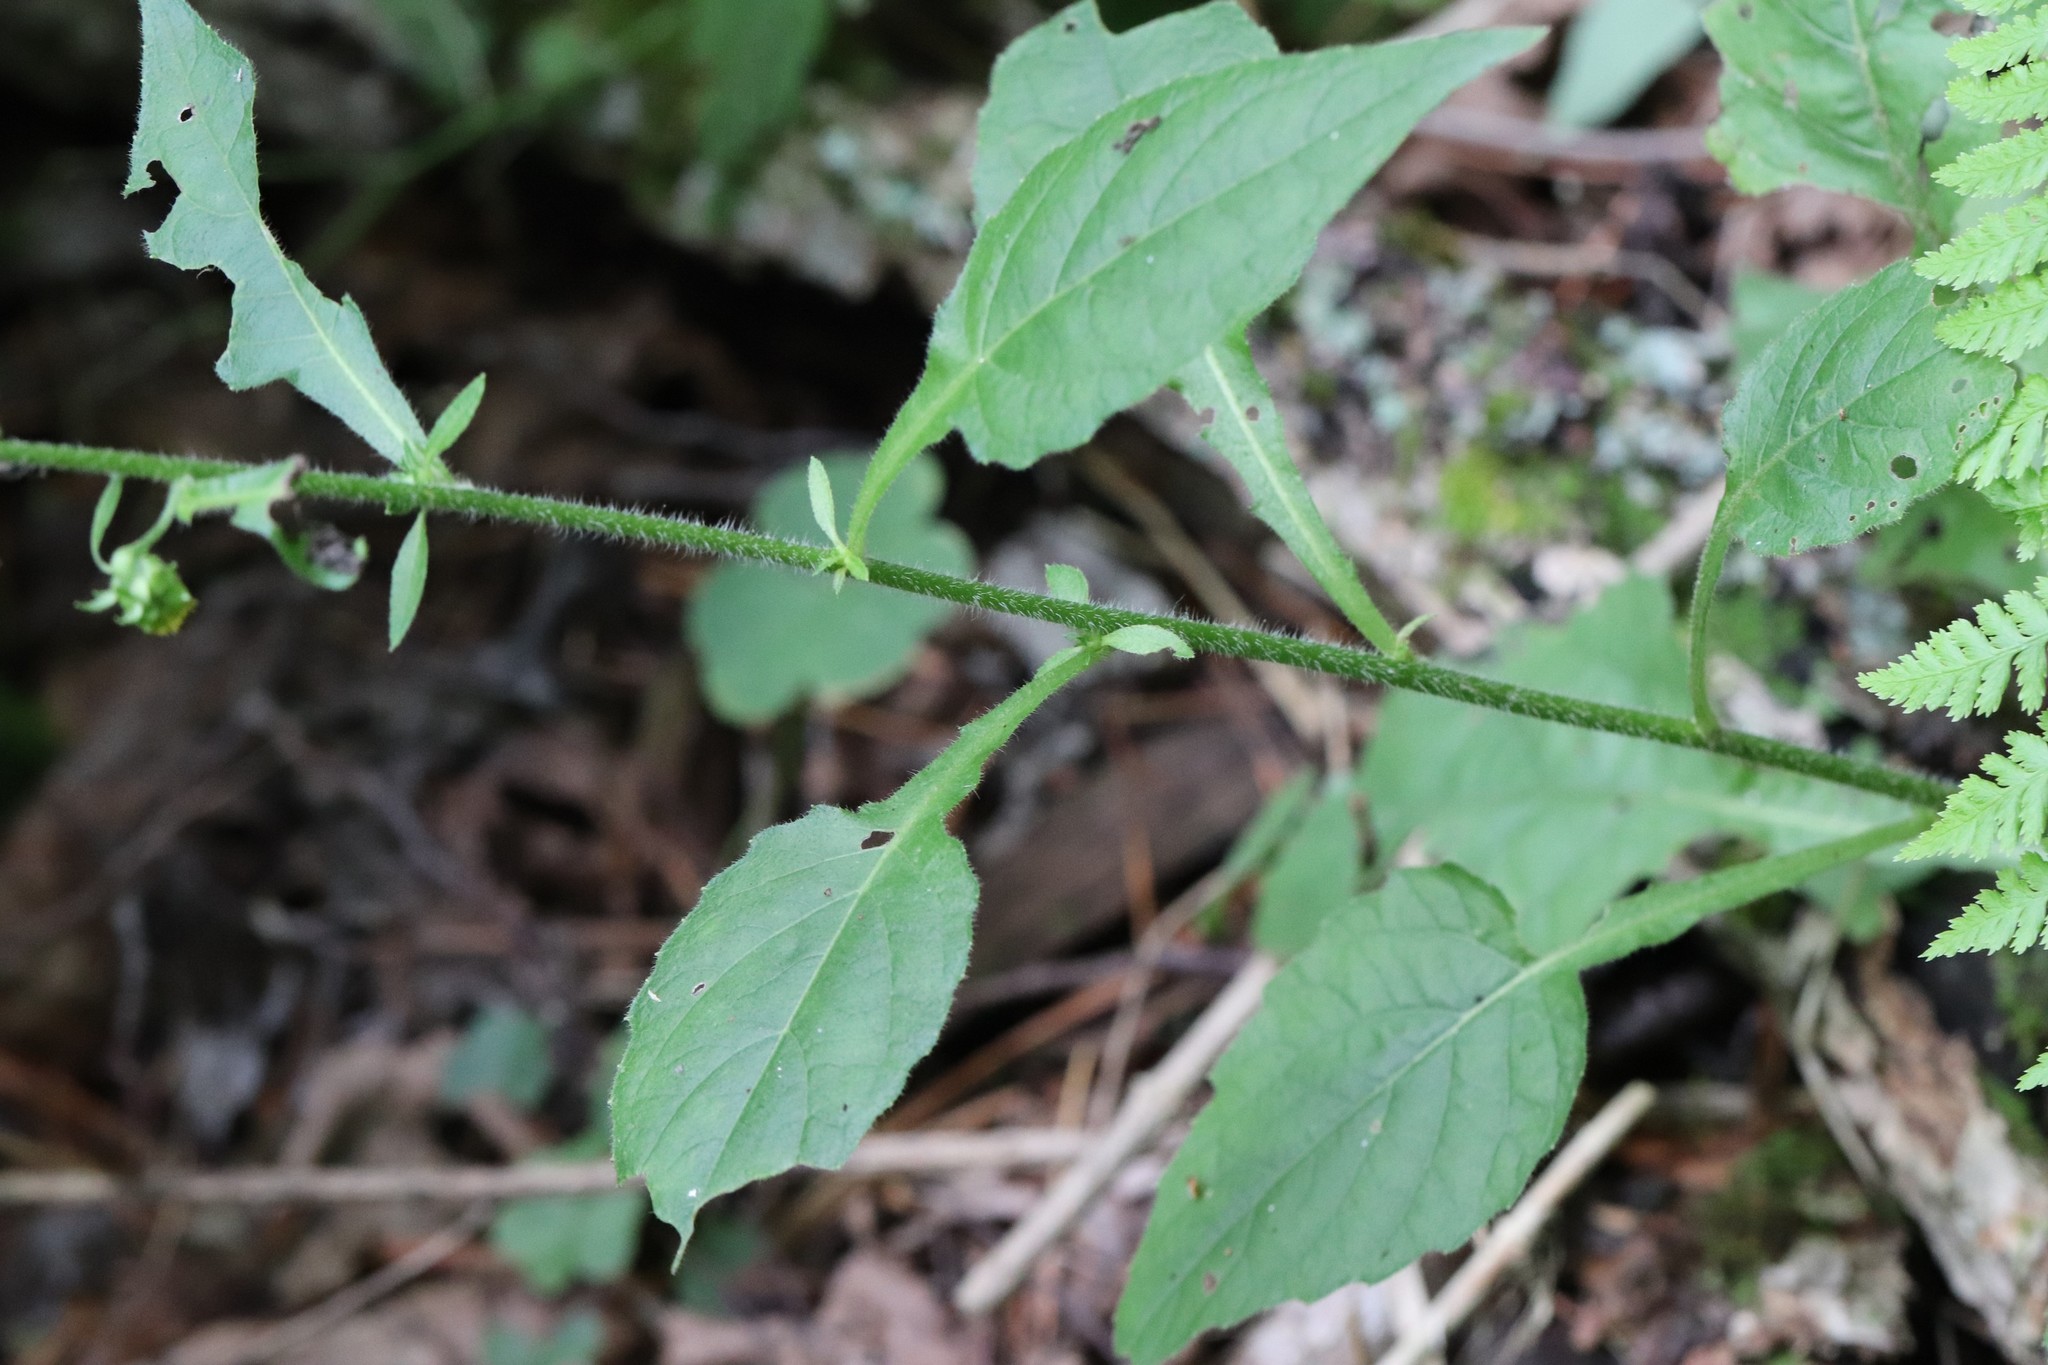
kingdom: Plantae
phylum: Tracheophyta
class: Magnoliopsida
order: Asterales
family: Asteraceae
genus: Carpesium
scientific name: Carpesium triste
